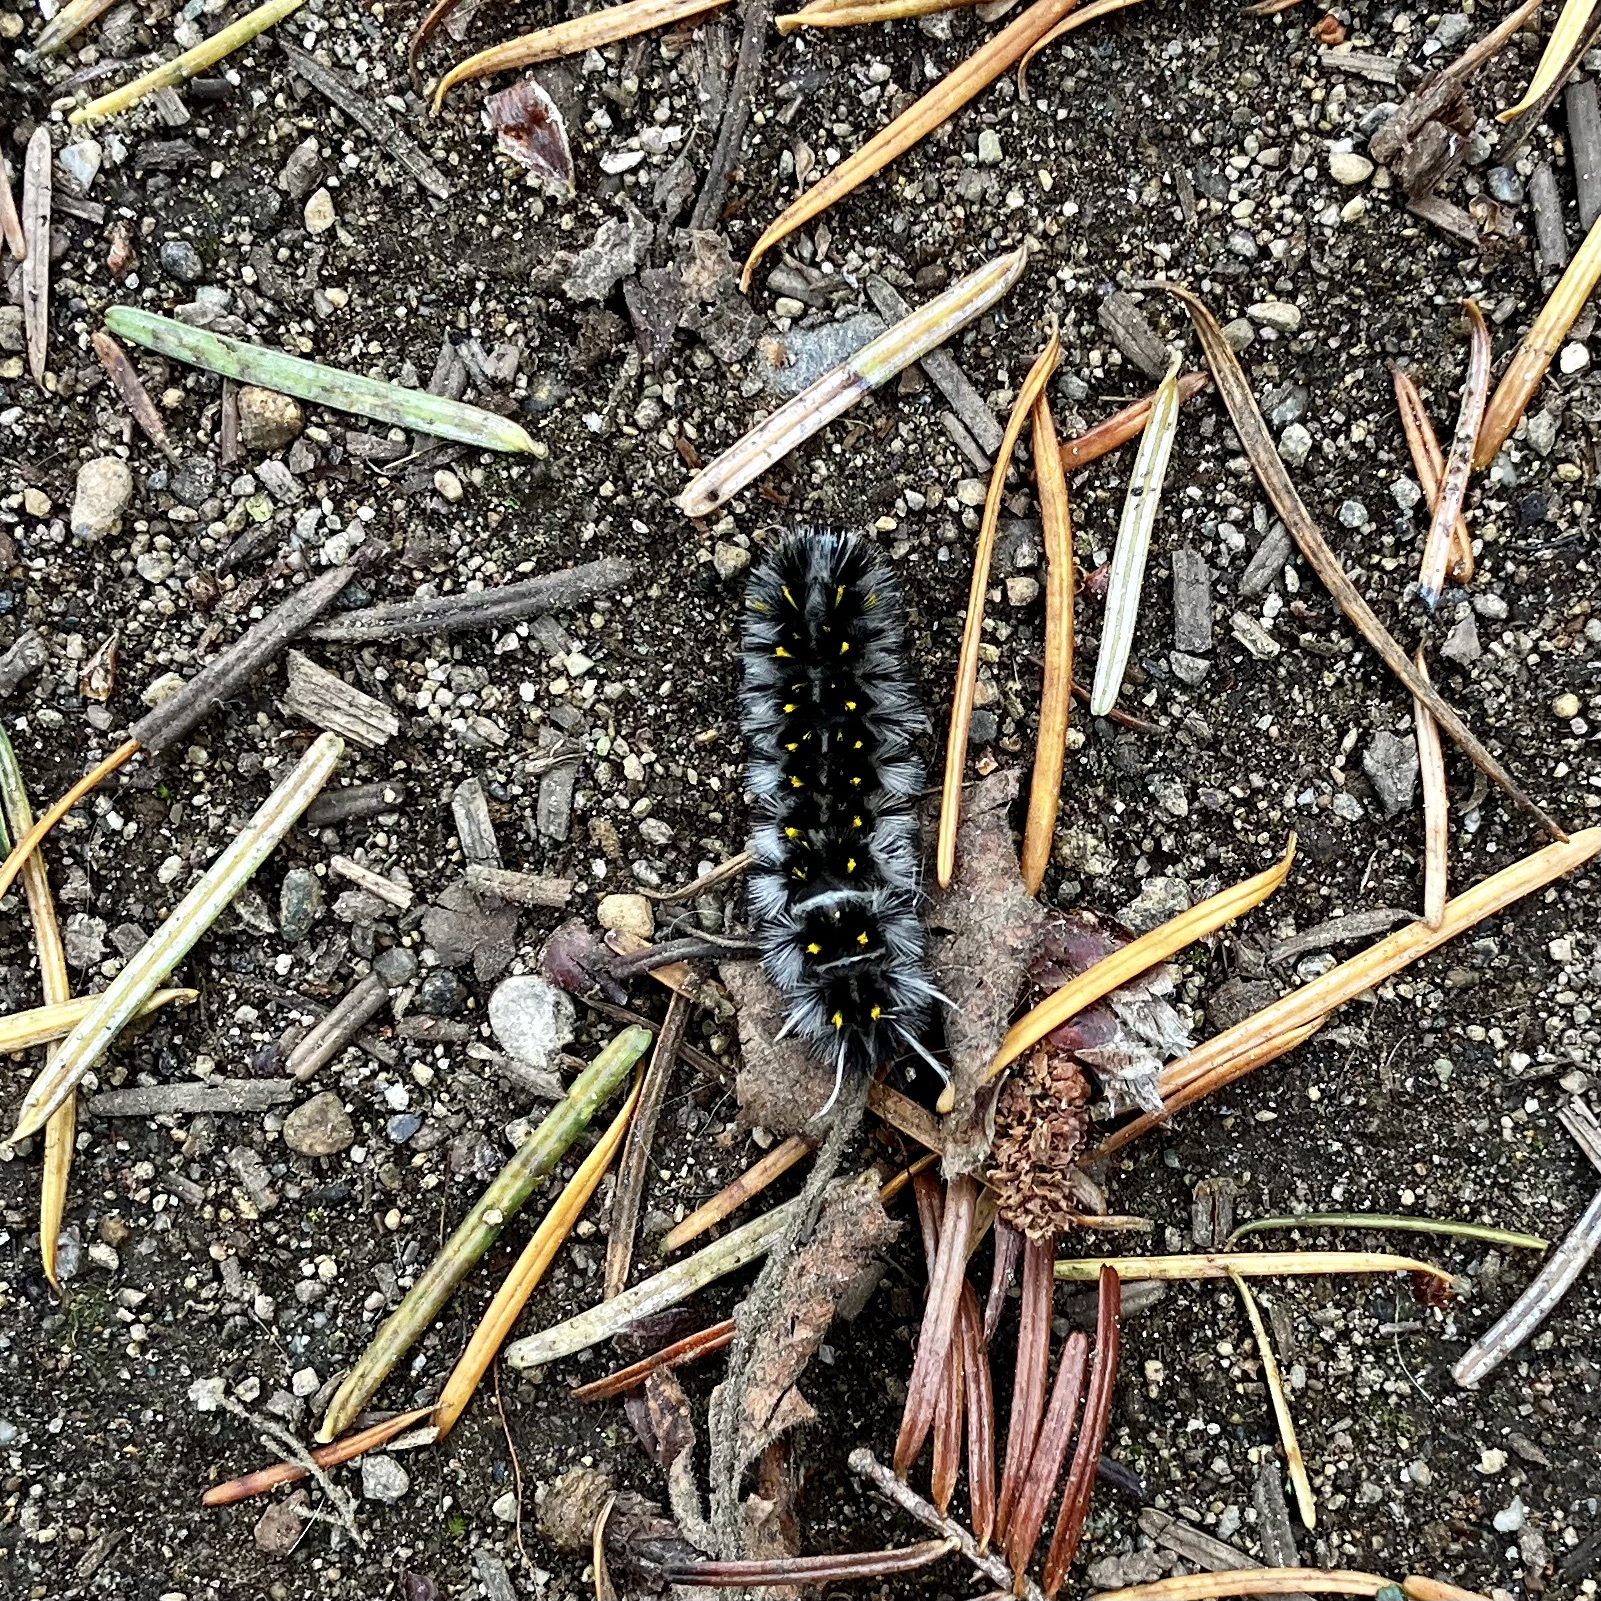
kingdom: Animalia
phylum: Arthropoda
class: Insecta
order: Lepidoptera
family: Erebidae
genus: Lophocampa
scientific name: Lophocampa roseata
